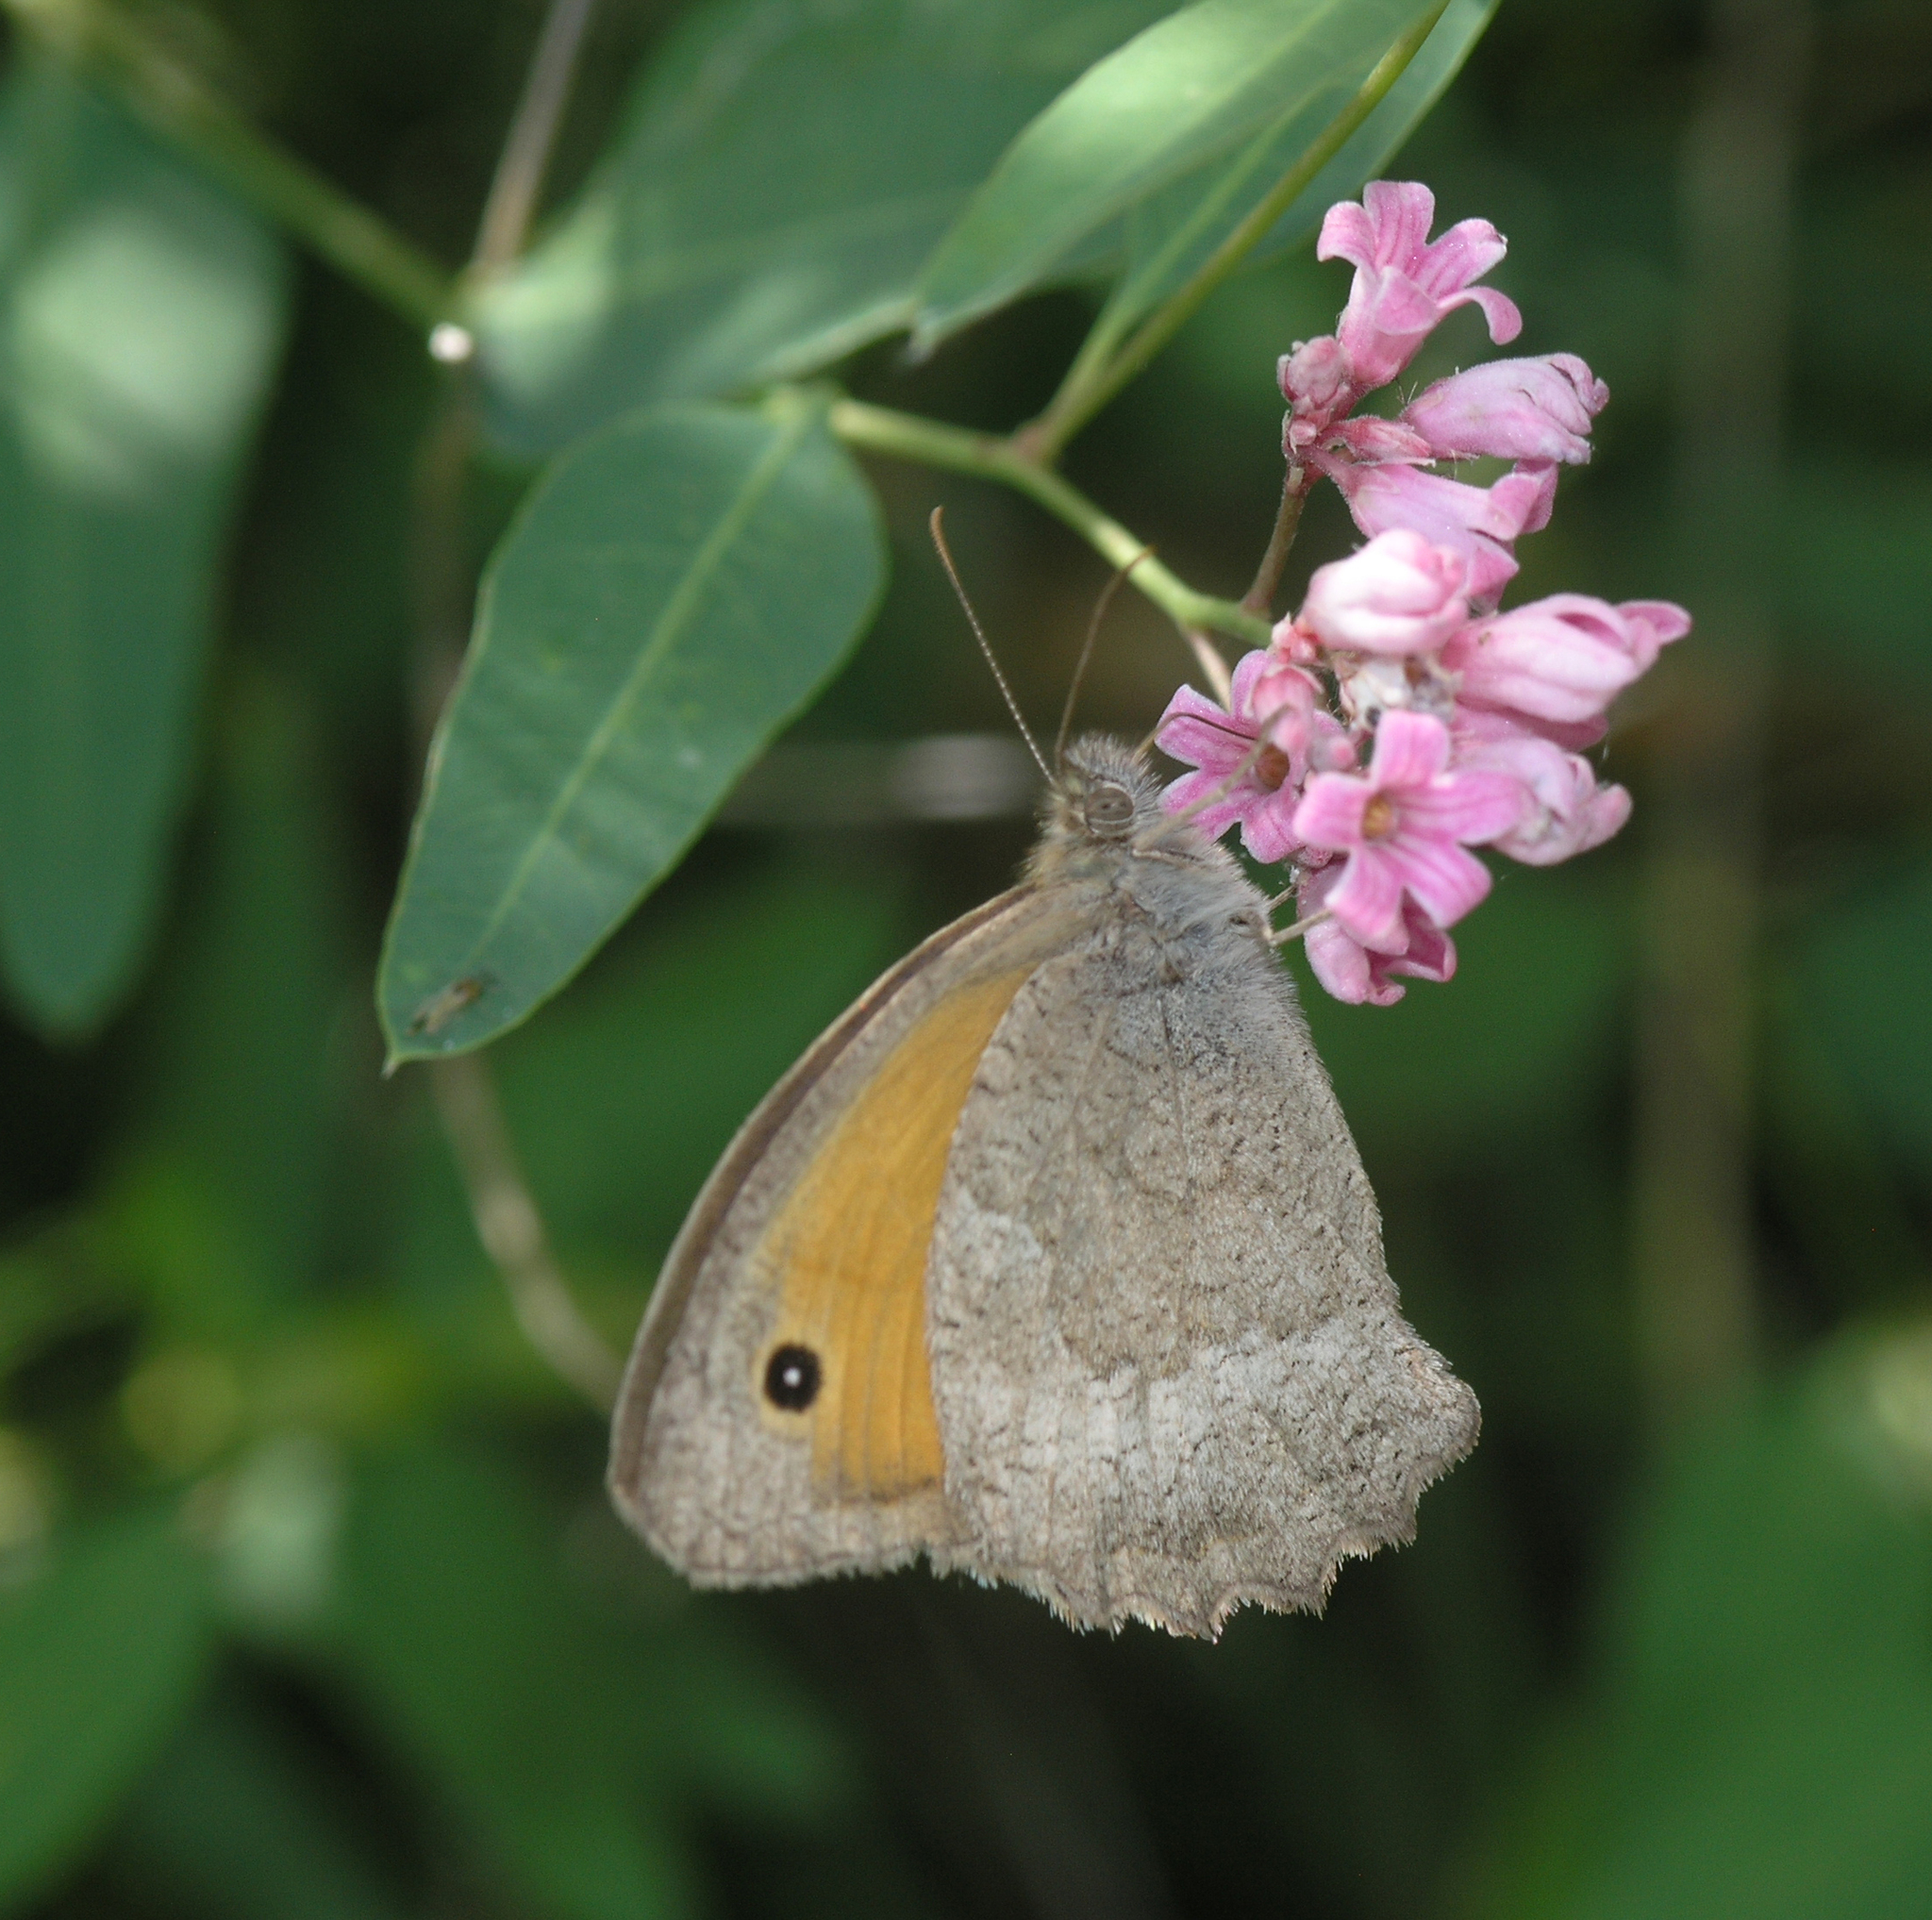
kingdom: Animalia
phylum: Arthropoda
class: Insecta
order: Lepidoptera
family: Nymphalidae
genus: Hyponephele
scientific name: Hyponephele lupinus
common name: Oriental meadow brown
